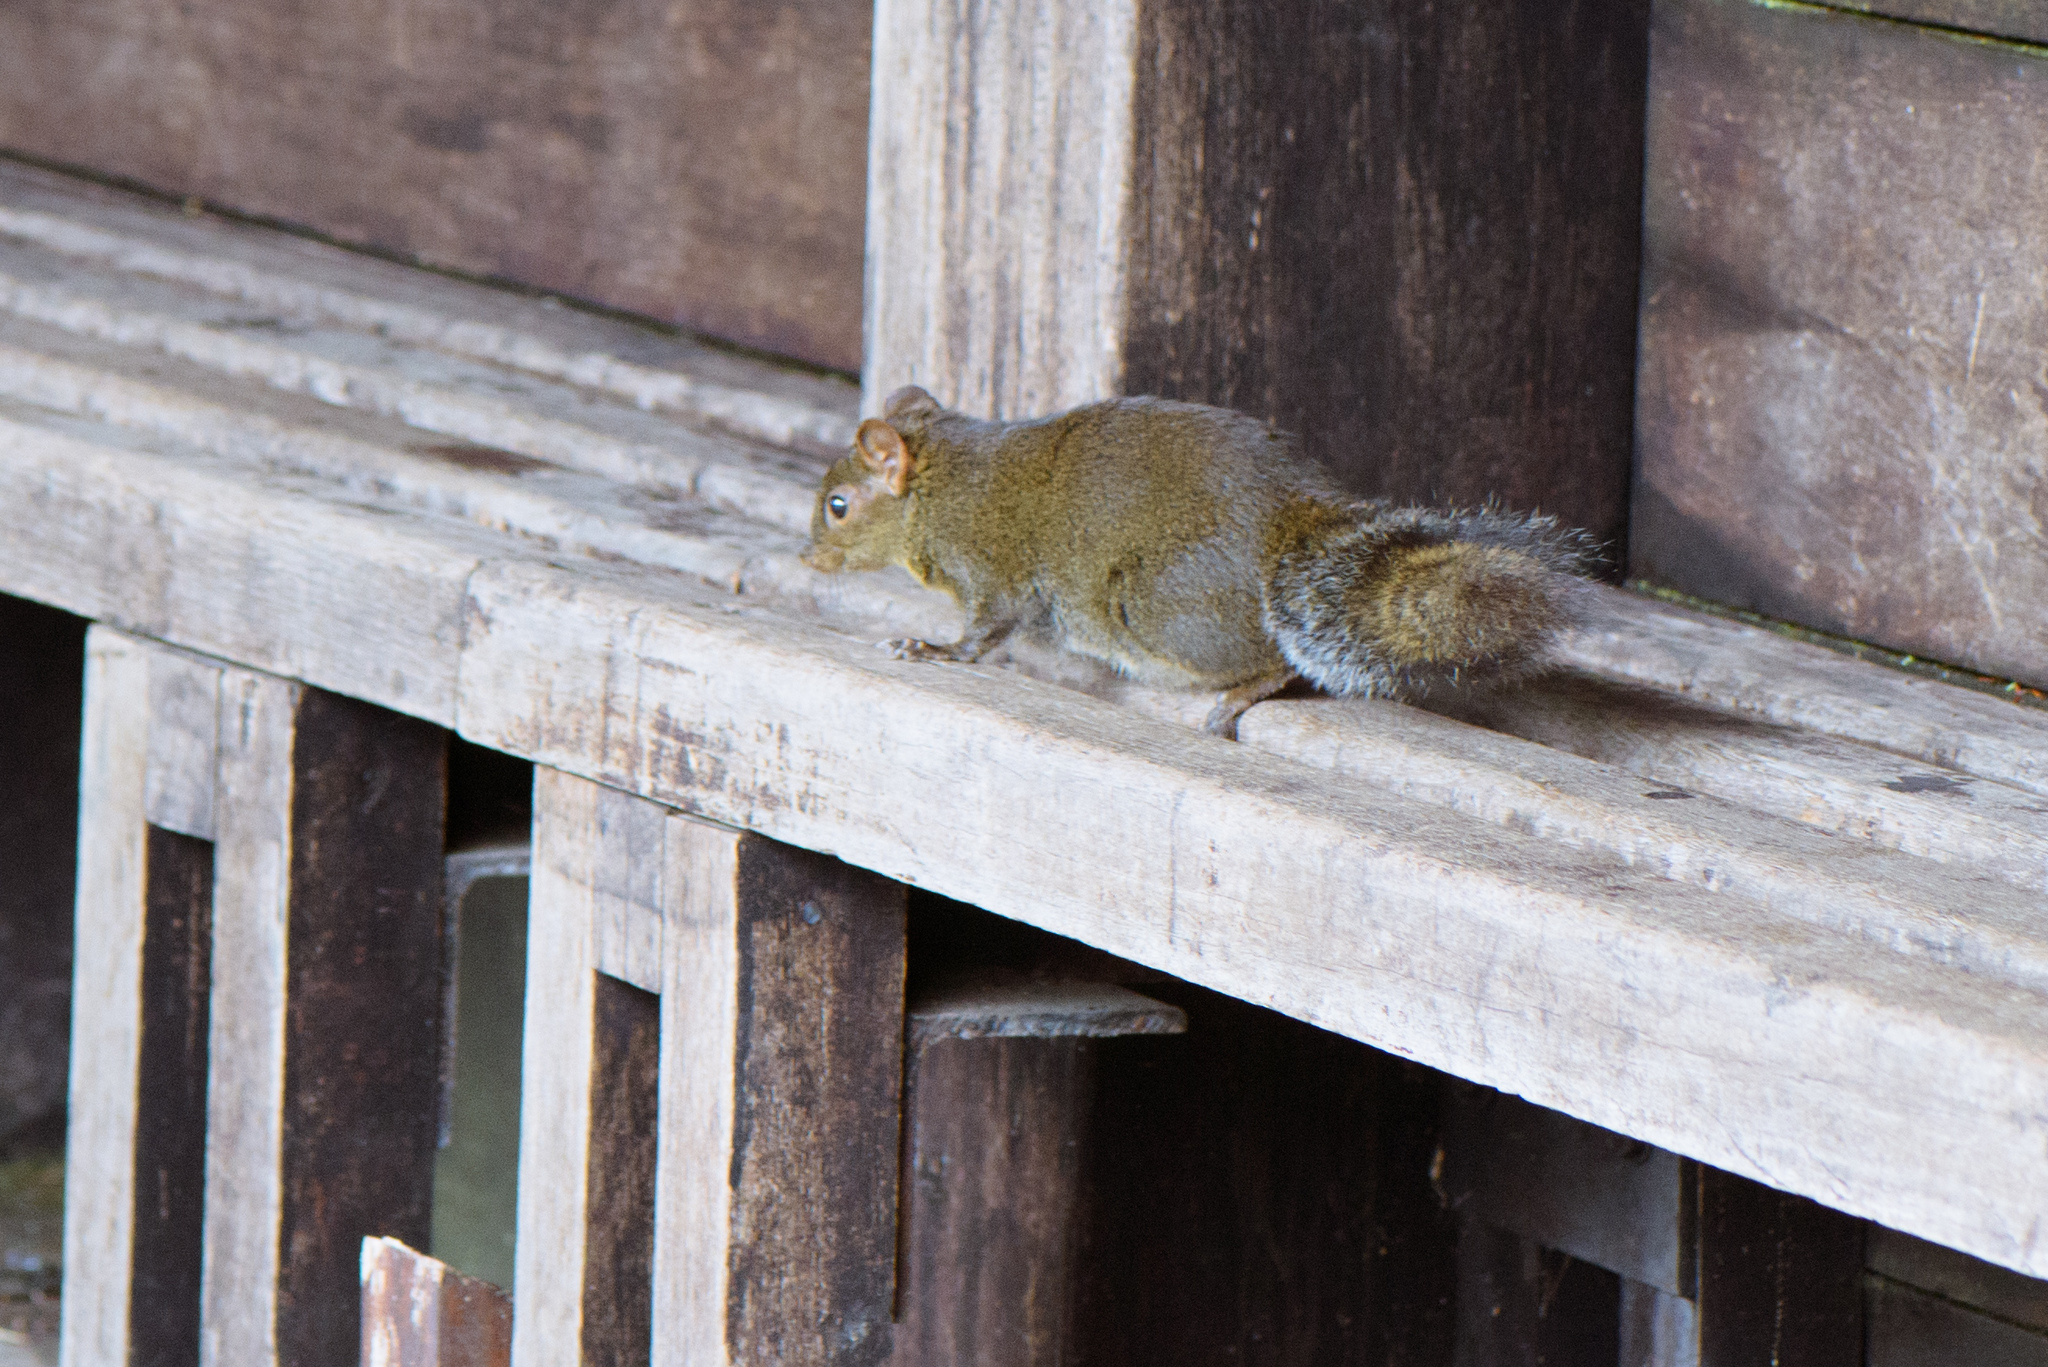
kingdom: Animalia
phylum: Chordata
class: Mammalia
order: Rodentia
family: Sciuridae
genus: Dremomys
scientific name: Dremomys pernyi
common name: Perny's long-nosed squirrel
